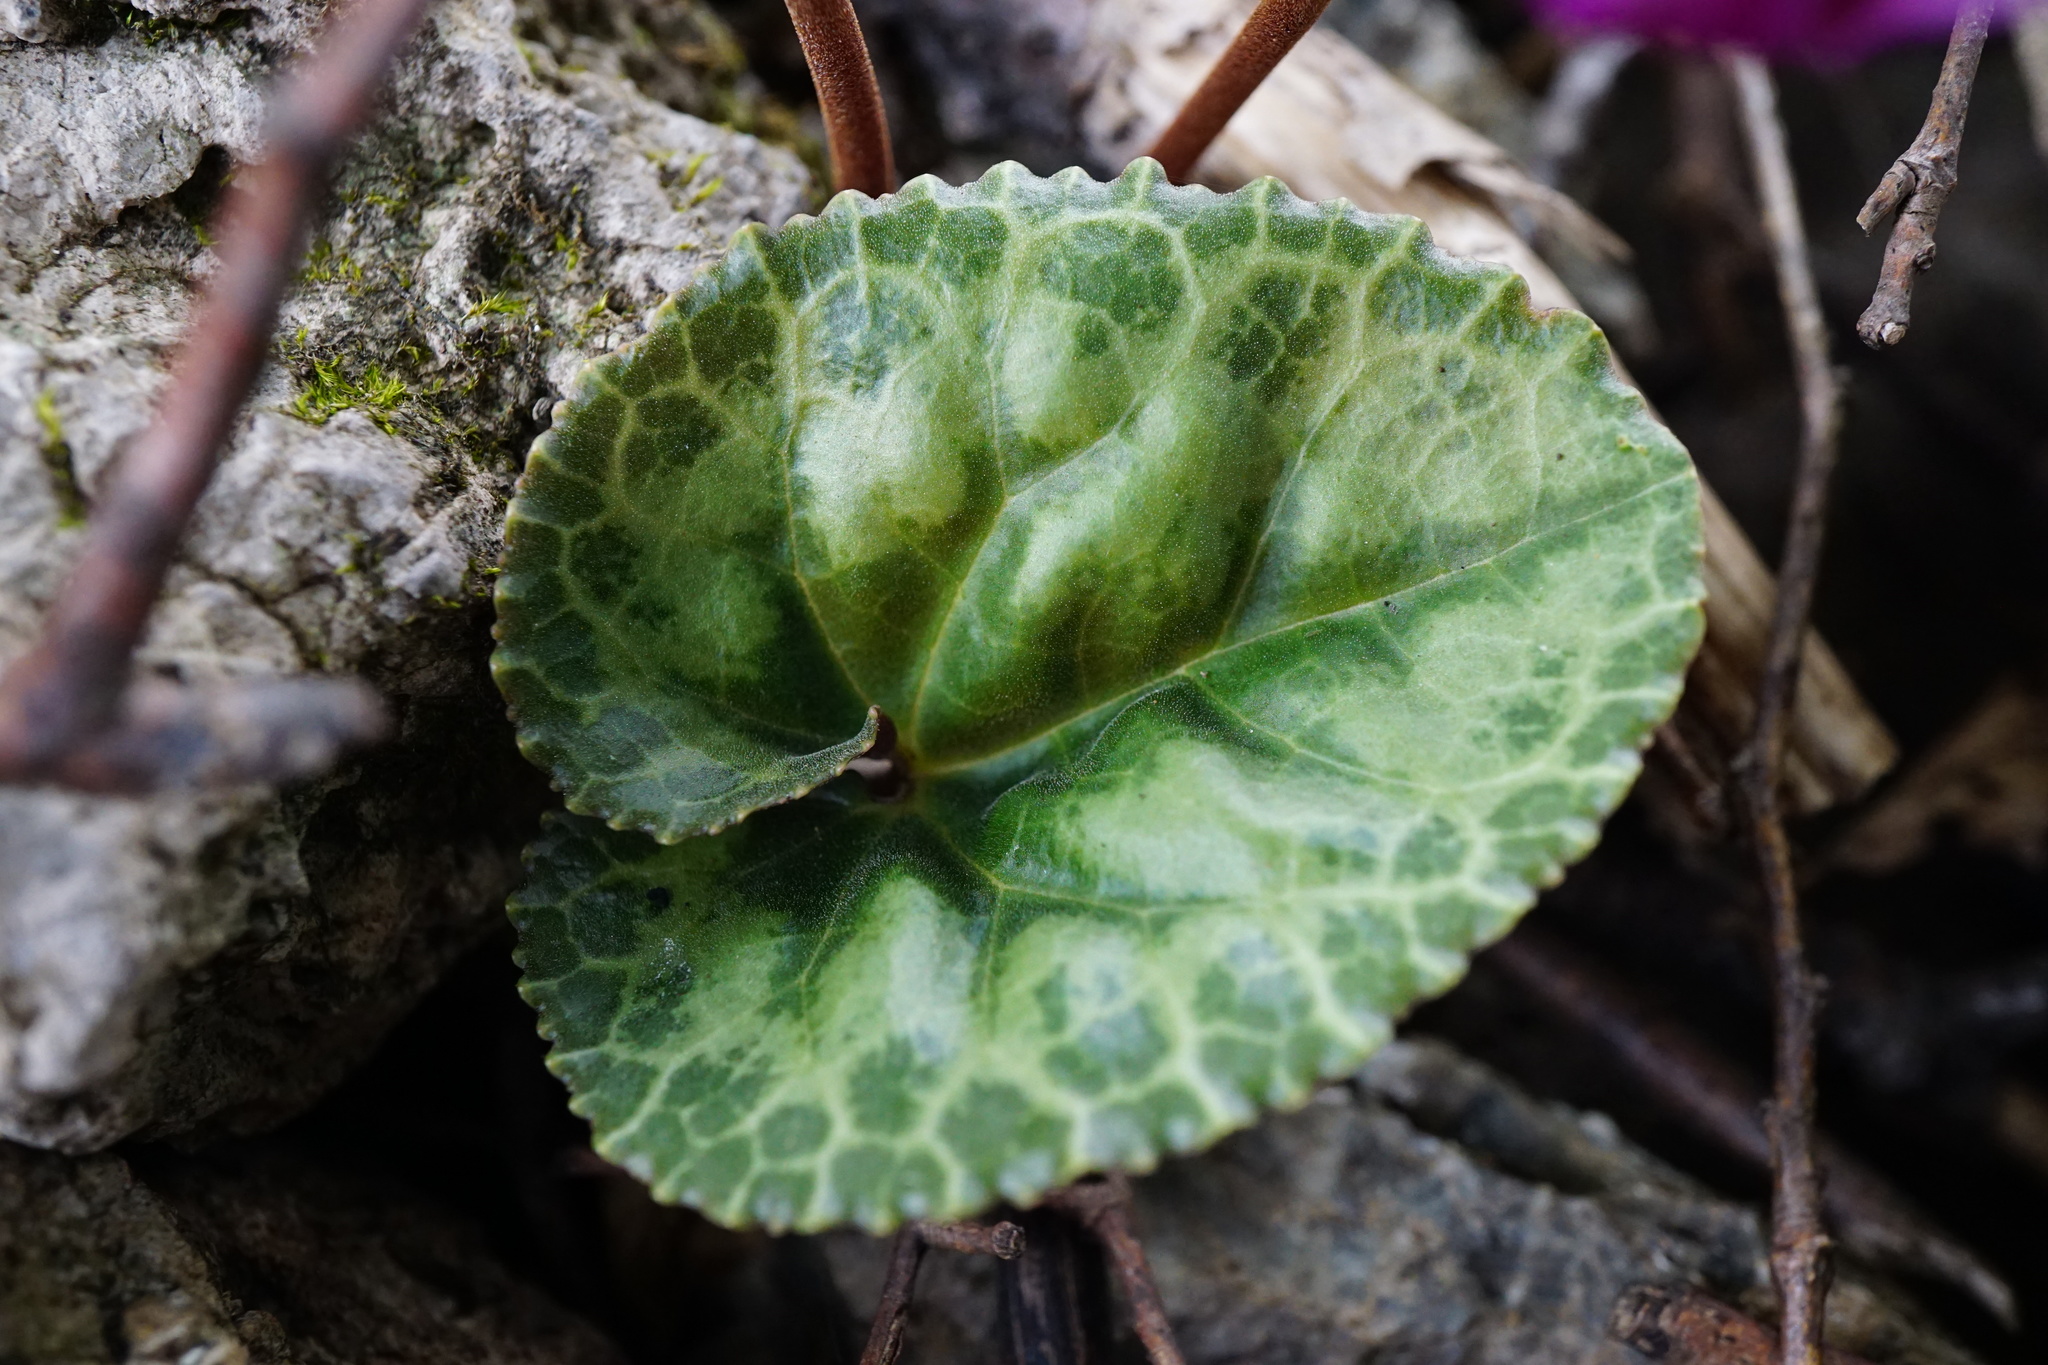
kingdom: Plantae
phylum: Tracheophyta
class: Magnoliopsida
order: Ericales
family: Primulaceae
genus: Cyclamen
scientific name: Cyclamen purpurascens
